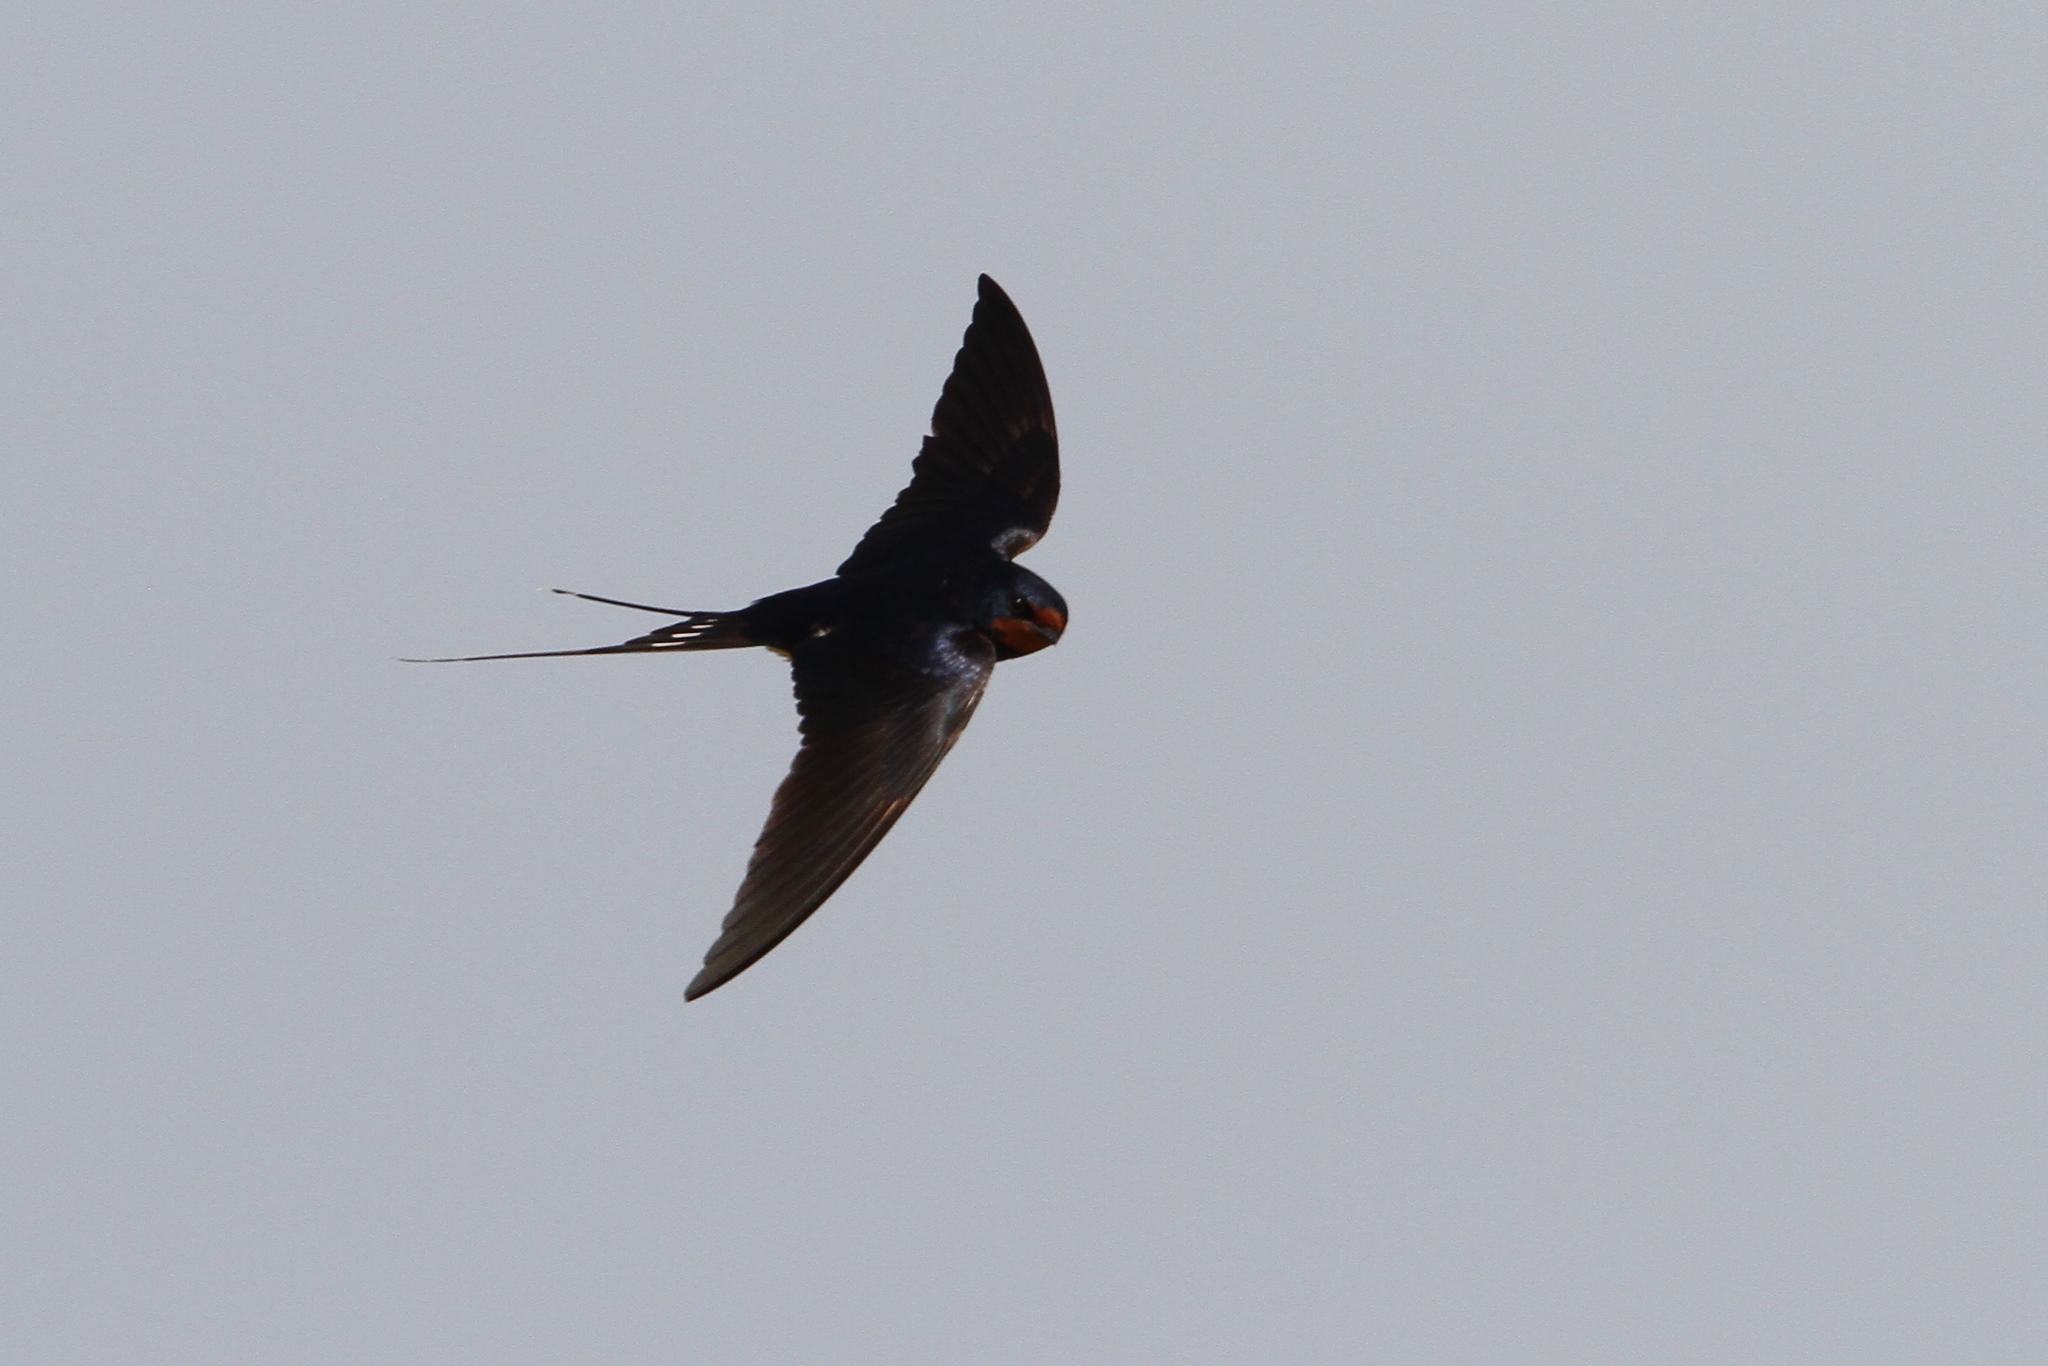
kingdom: Animalia
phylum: Chordata
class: Aves
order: Passeriformes
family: Hirundinidae
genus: Hirundo
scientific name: Hirundo rustica
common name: Barn swallow
